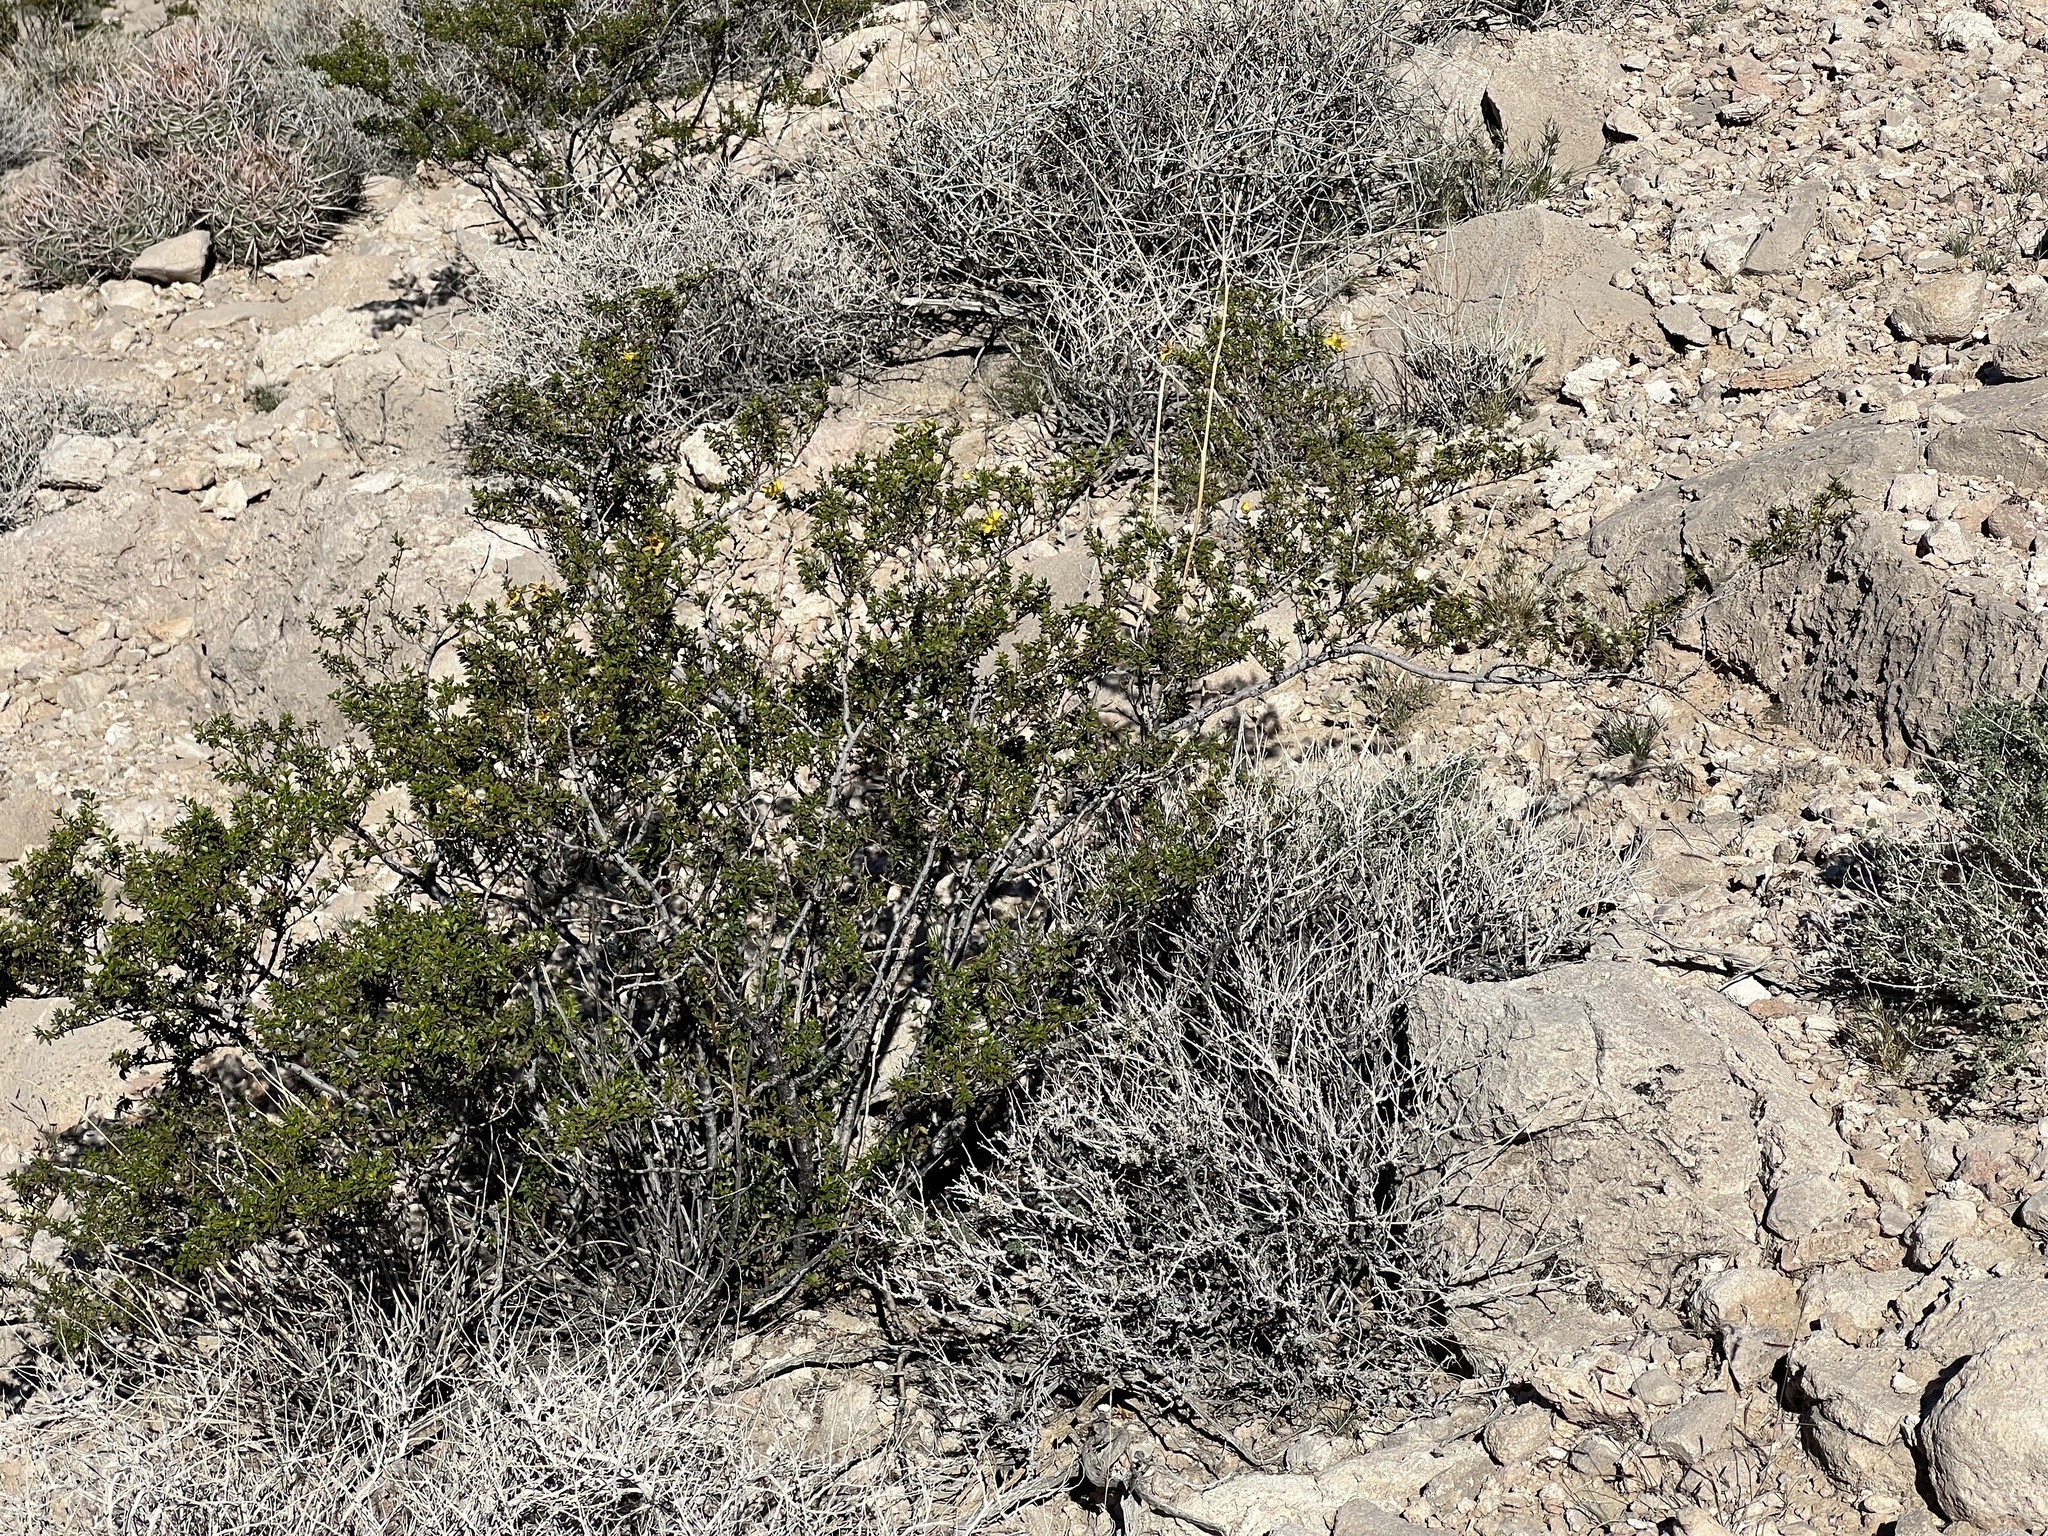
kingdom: Plantae
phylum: Tracheophyta
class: Magnoliopsida
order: Zygophyllales
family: Zygophyllaceae
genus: Larrea
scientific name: Larrea tridentata
